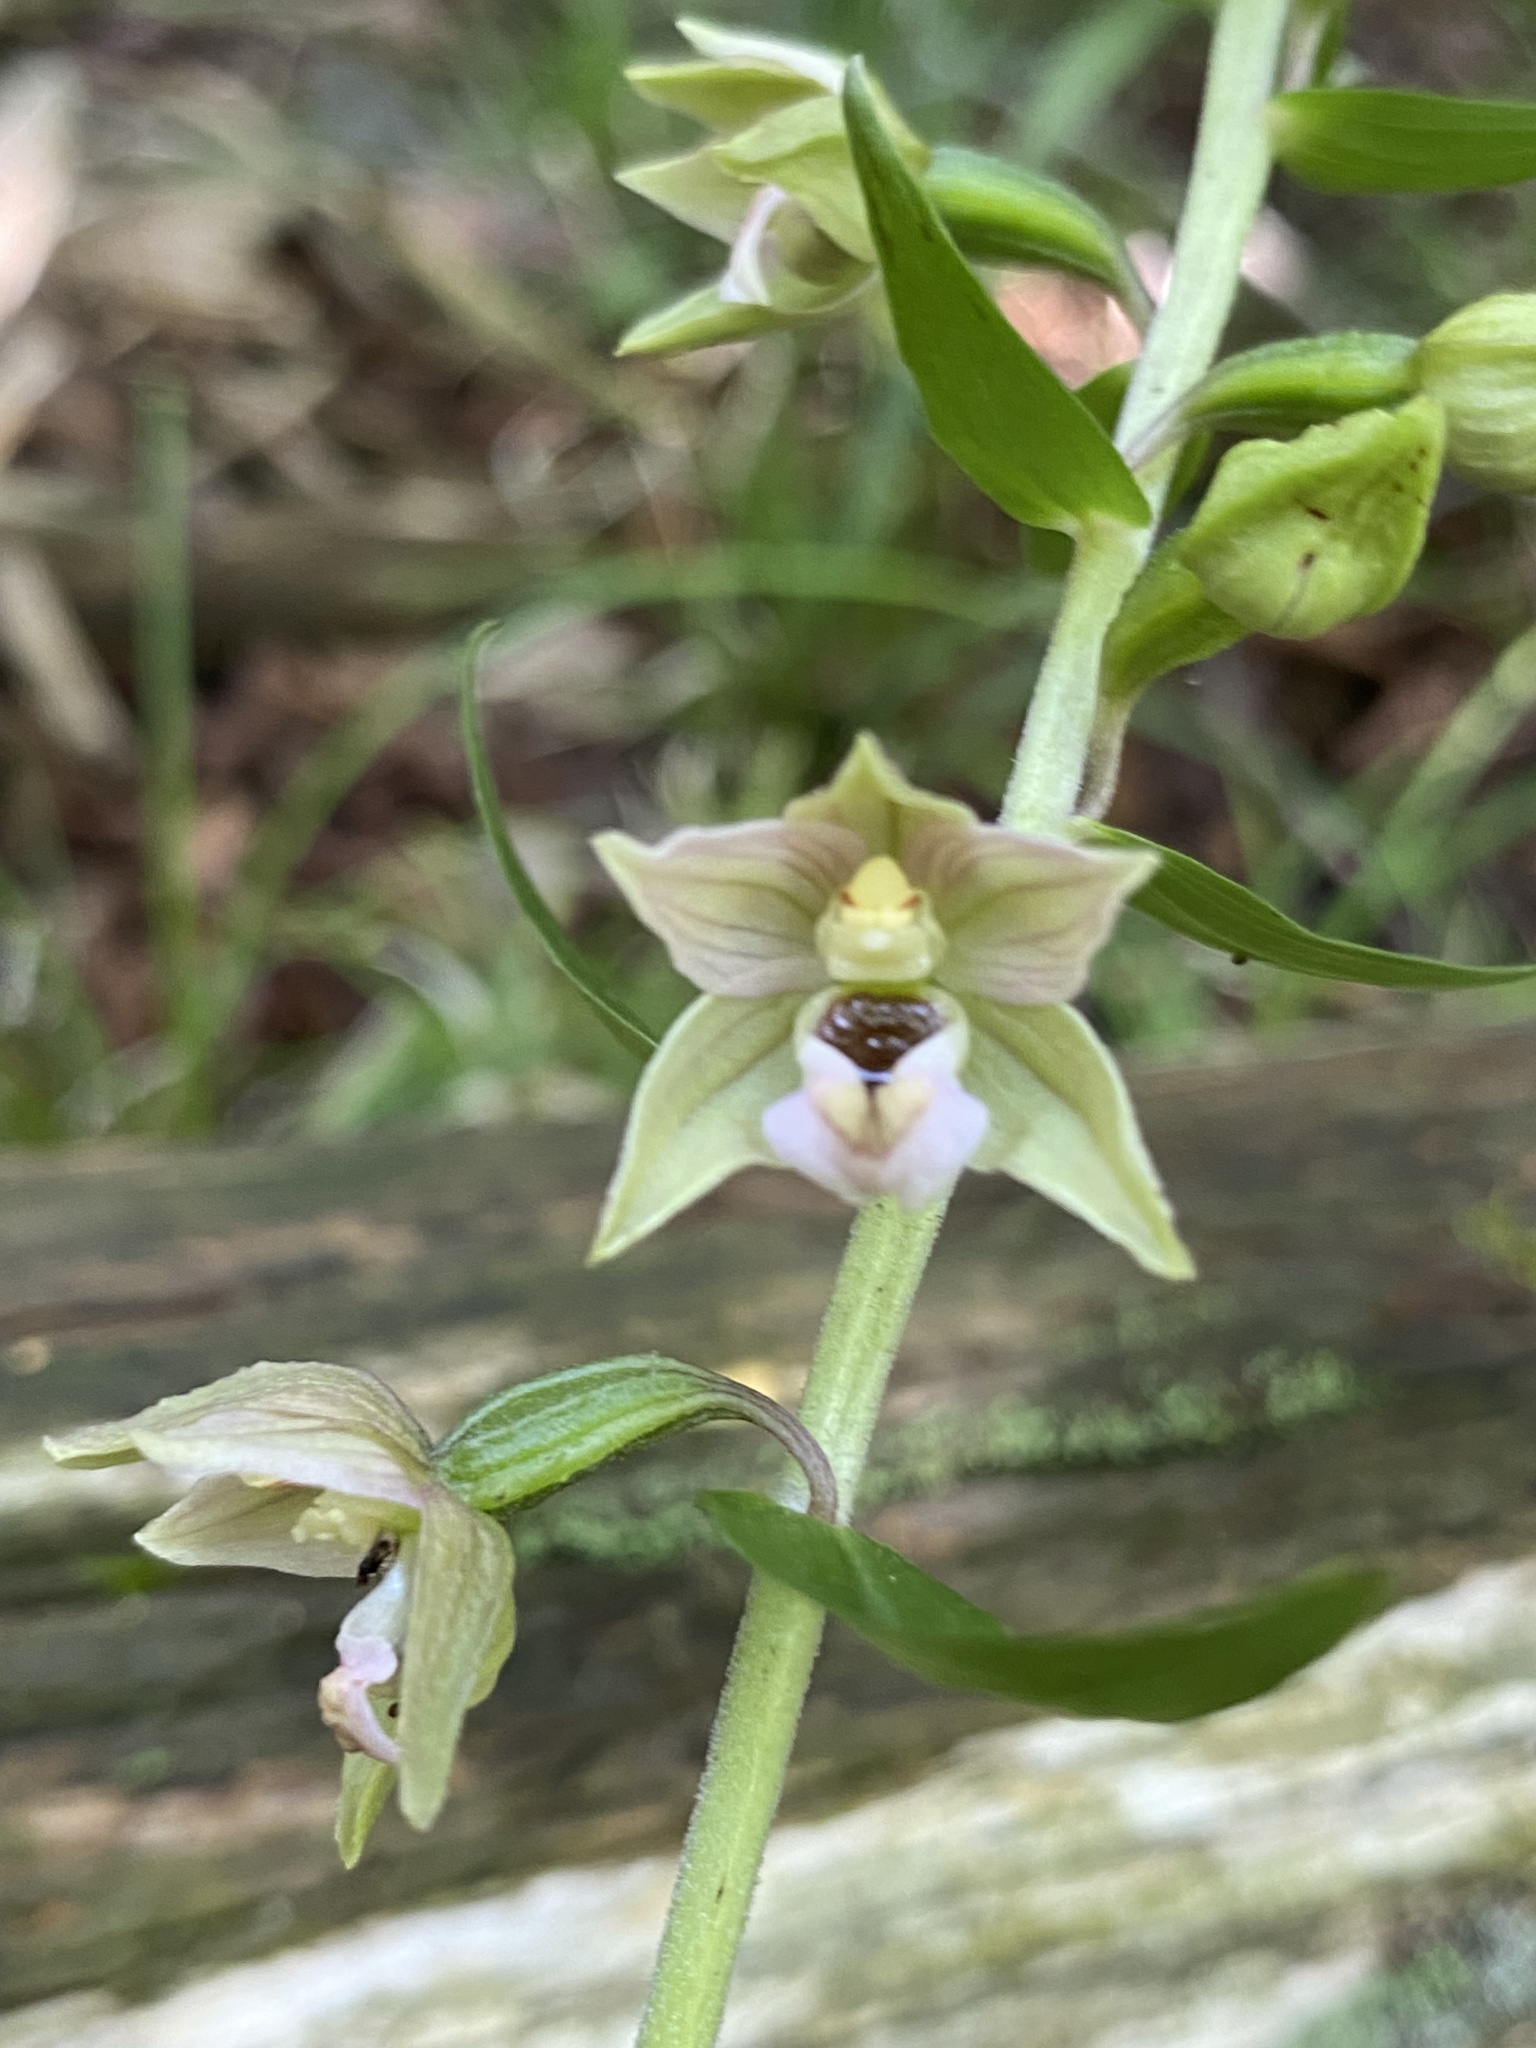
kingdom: Plantae
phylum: Tracheophyta
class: Liliopsida
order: Asparagales
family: Orchidaceae
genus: Epipactis
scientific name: Epipactis helleborine
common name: Broad-leaved helleborine
